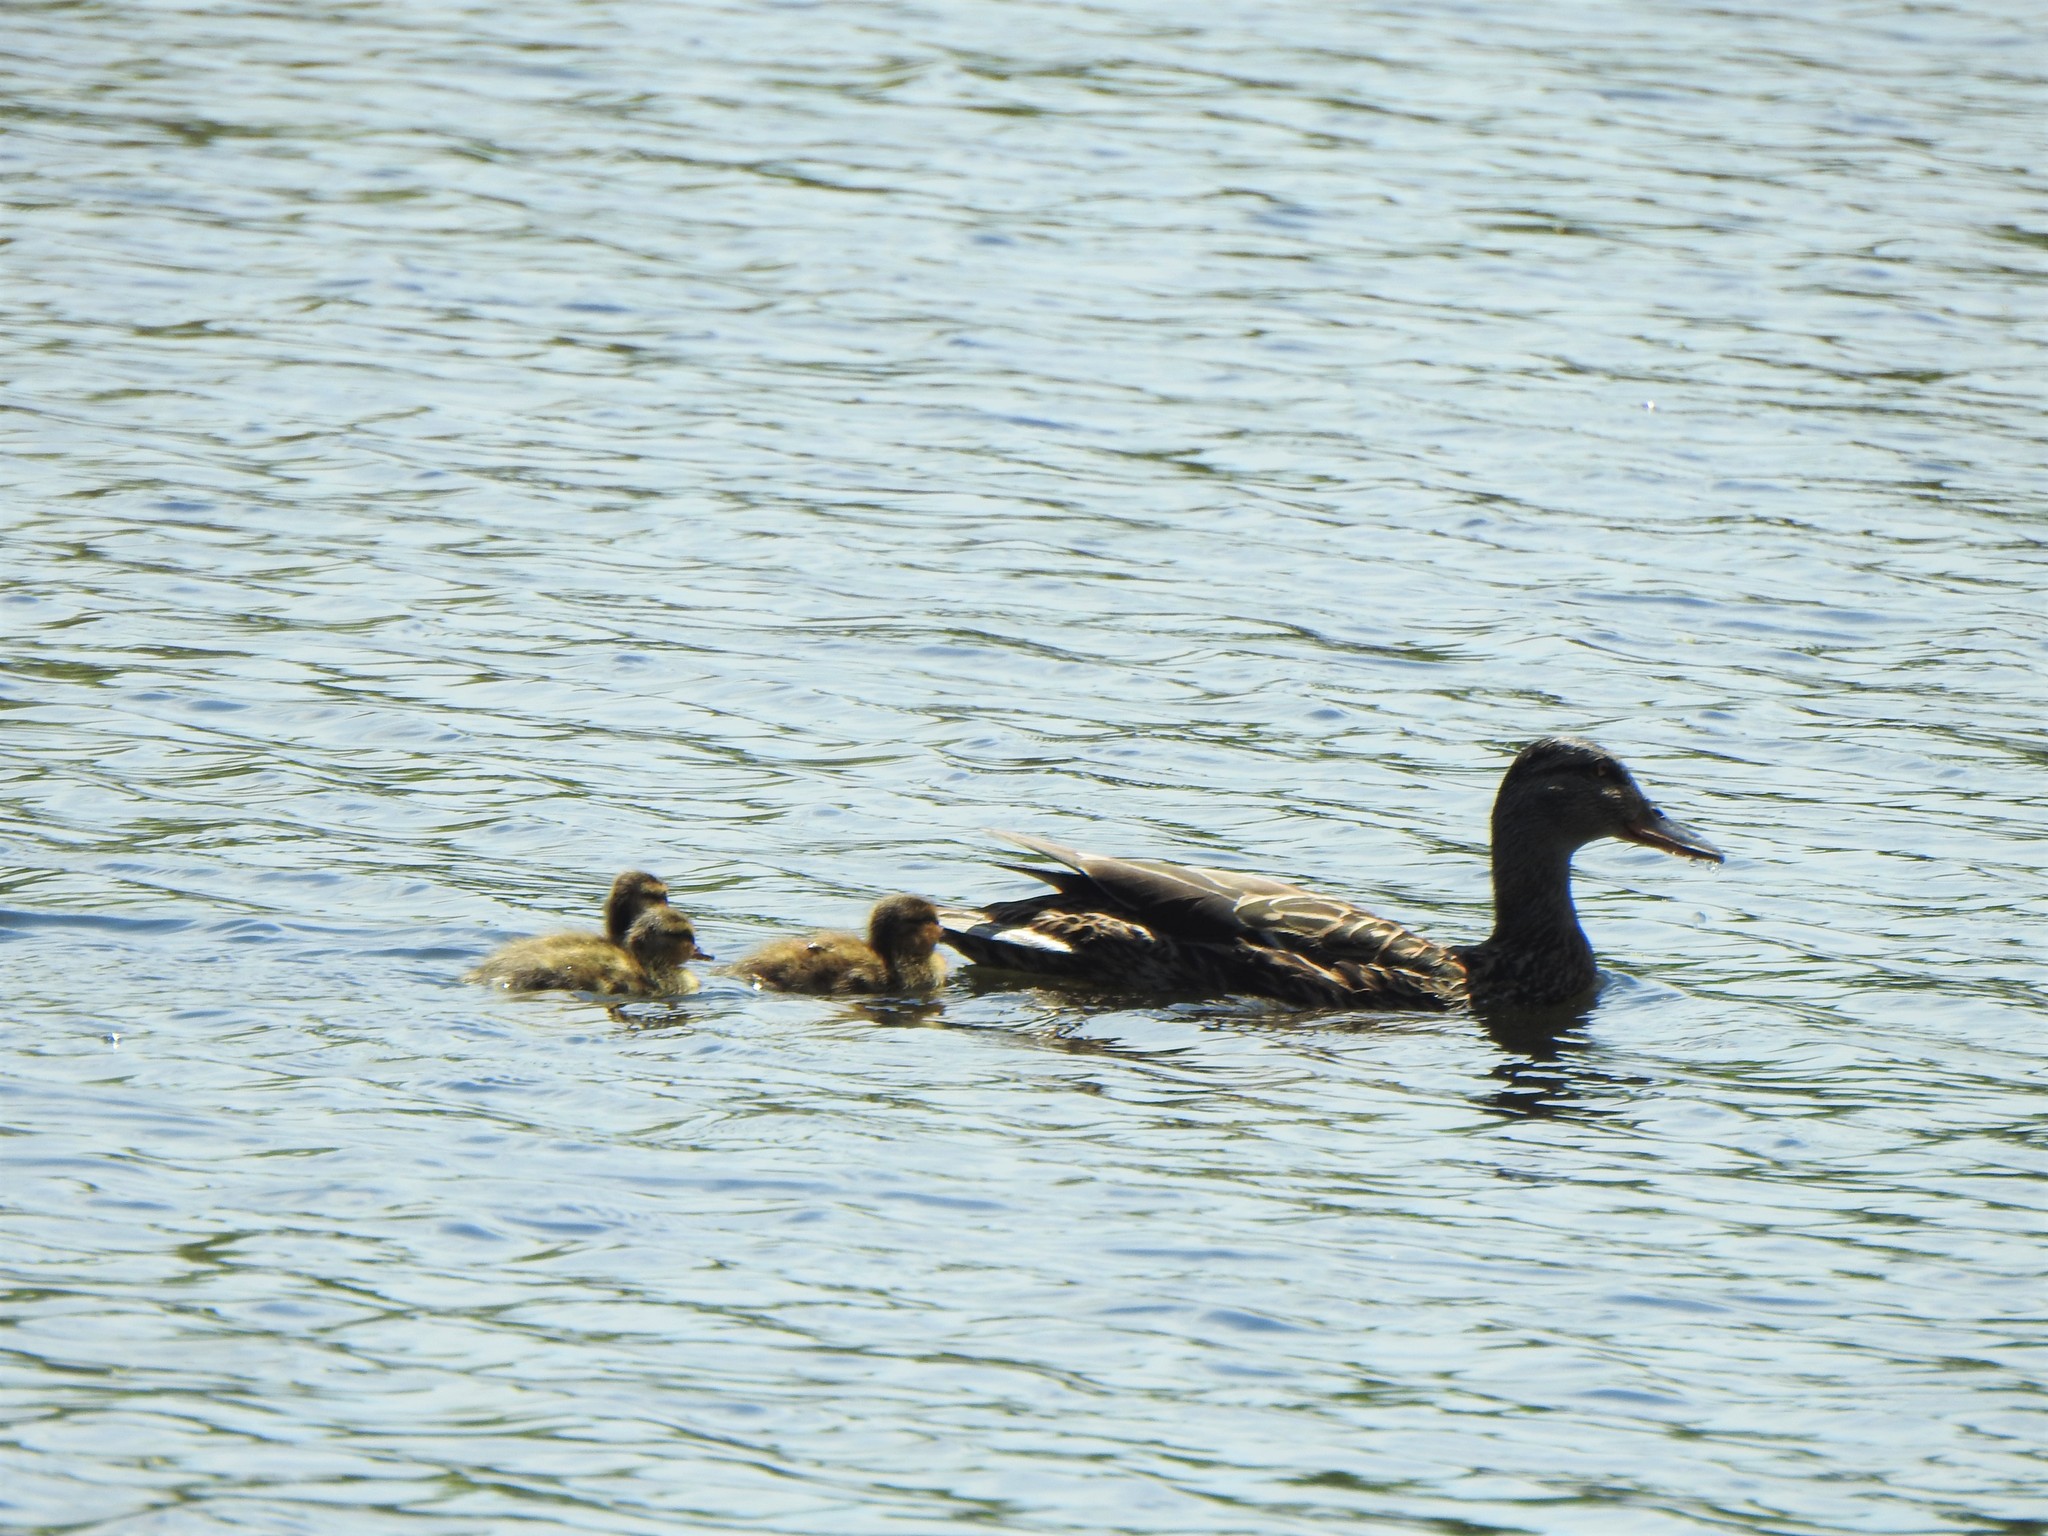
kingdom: Animalia
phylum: Chordata
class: Aves
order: Anseriformes
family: Anatidae
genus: Anas
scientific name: Anas platyrhynchos
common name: Mallard
